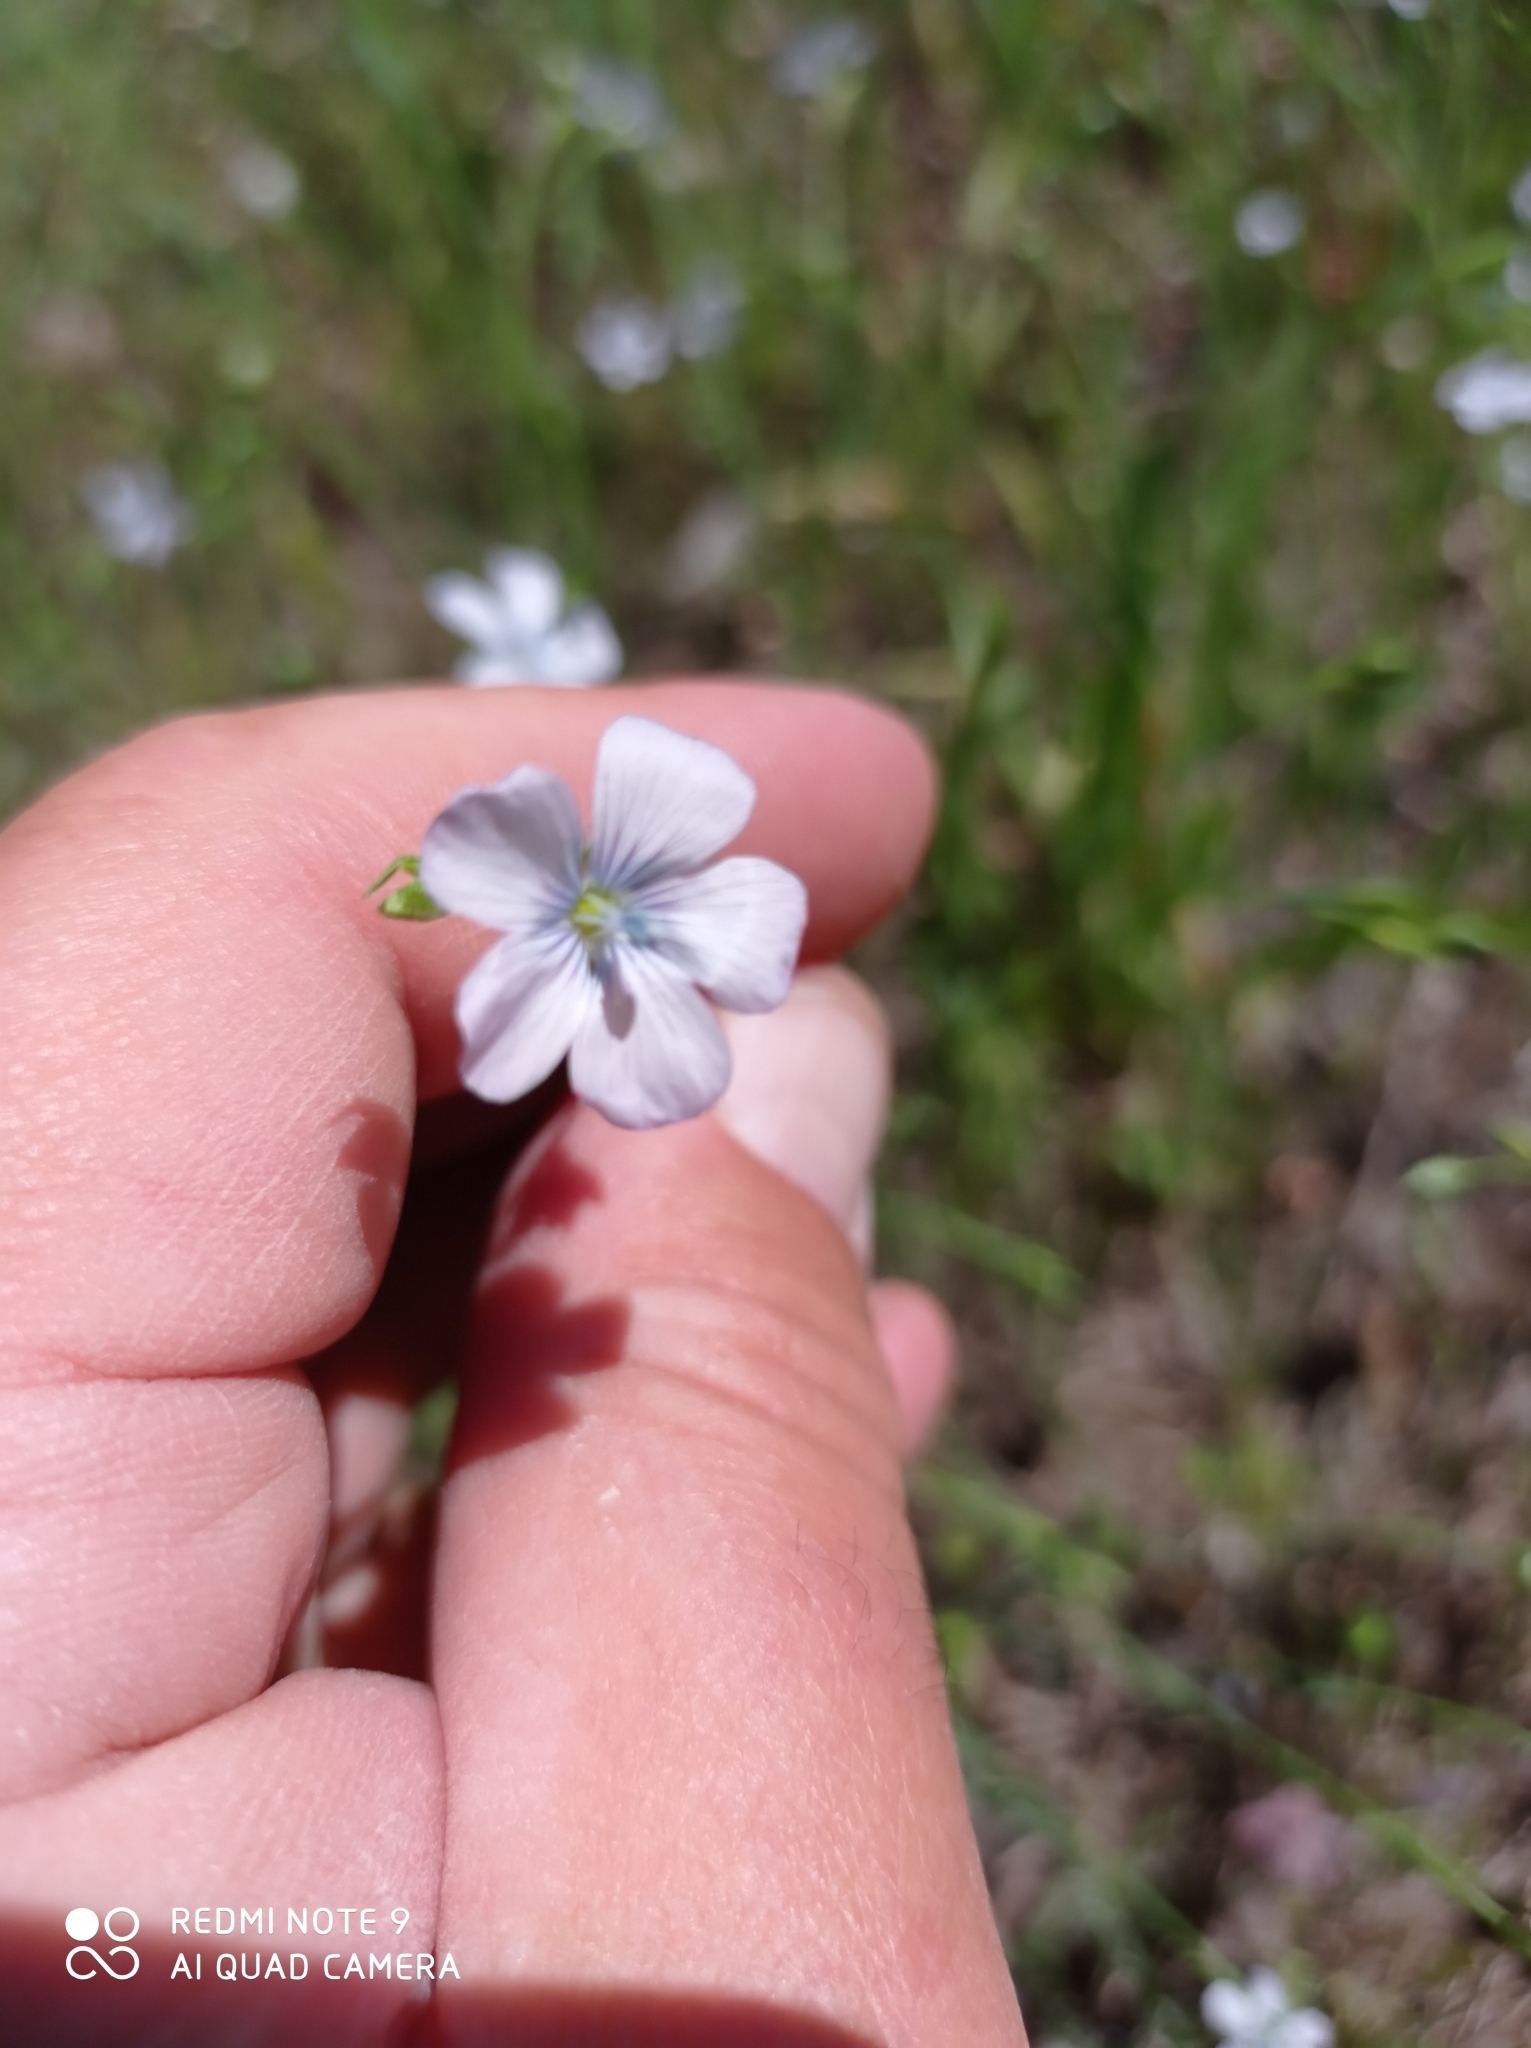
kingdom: Plantae
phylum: Tracheophyta
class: Magnoliopsida
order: Malpighiales
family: Linaceae
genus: Linum
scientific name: Linum usitatissimum
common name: Flax
